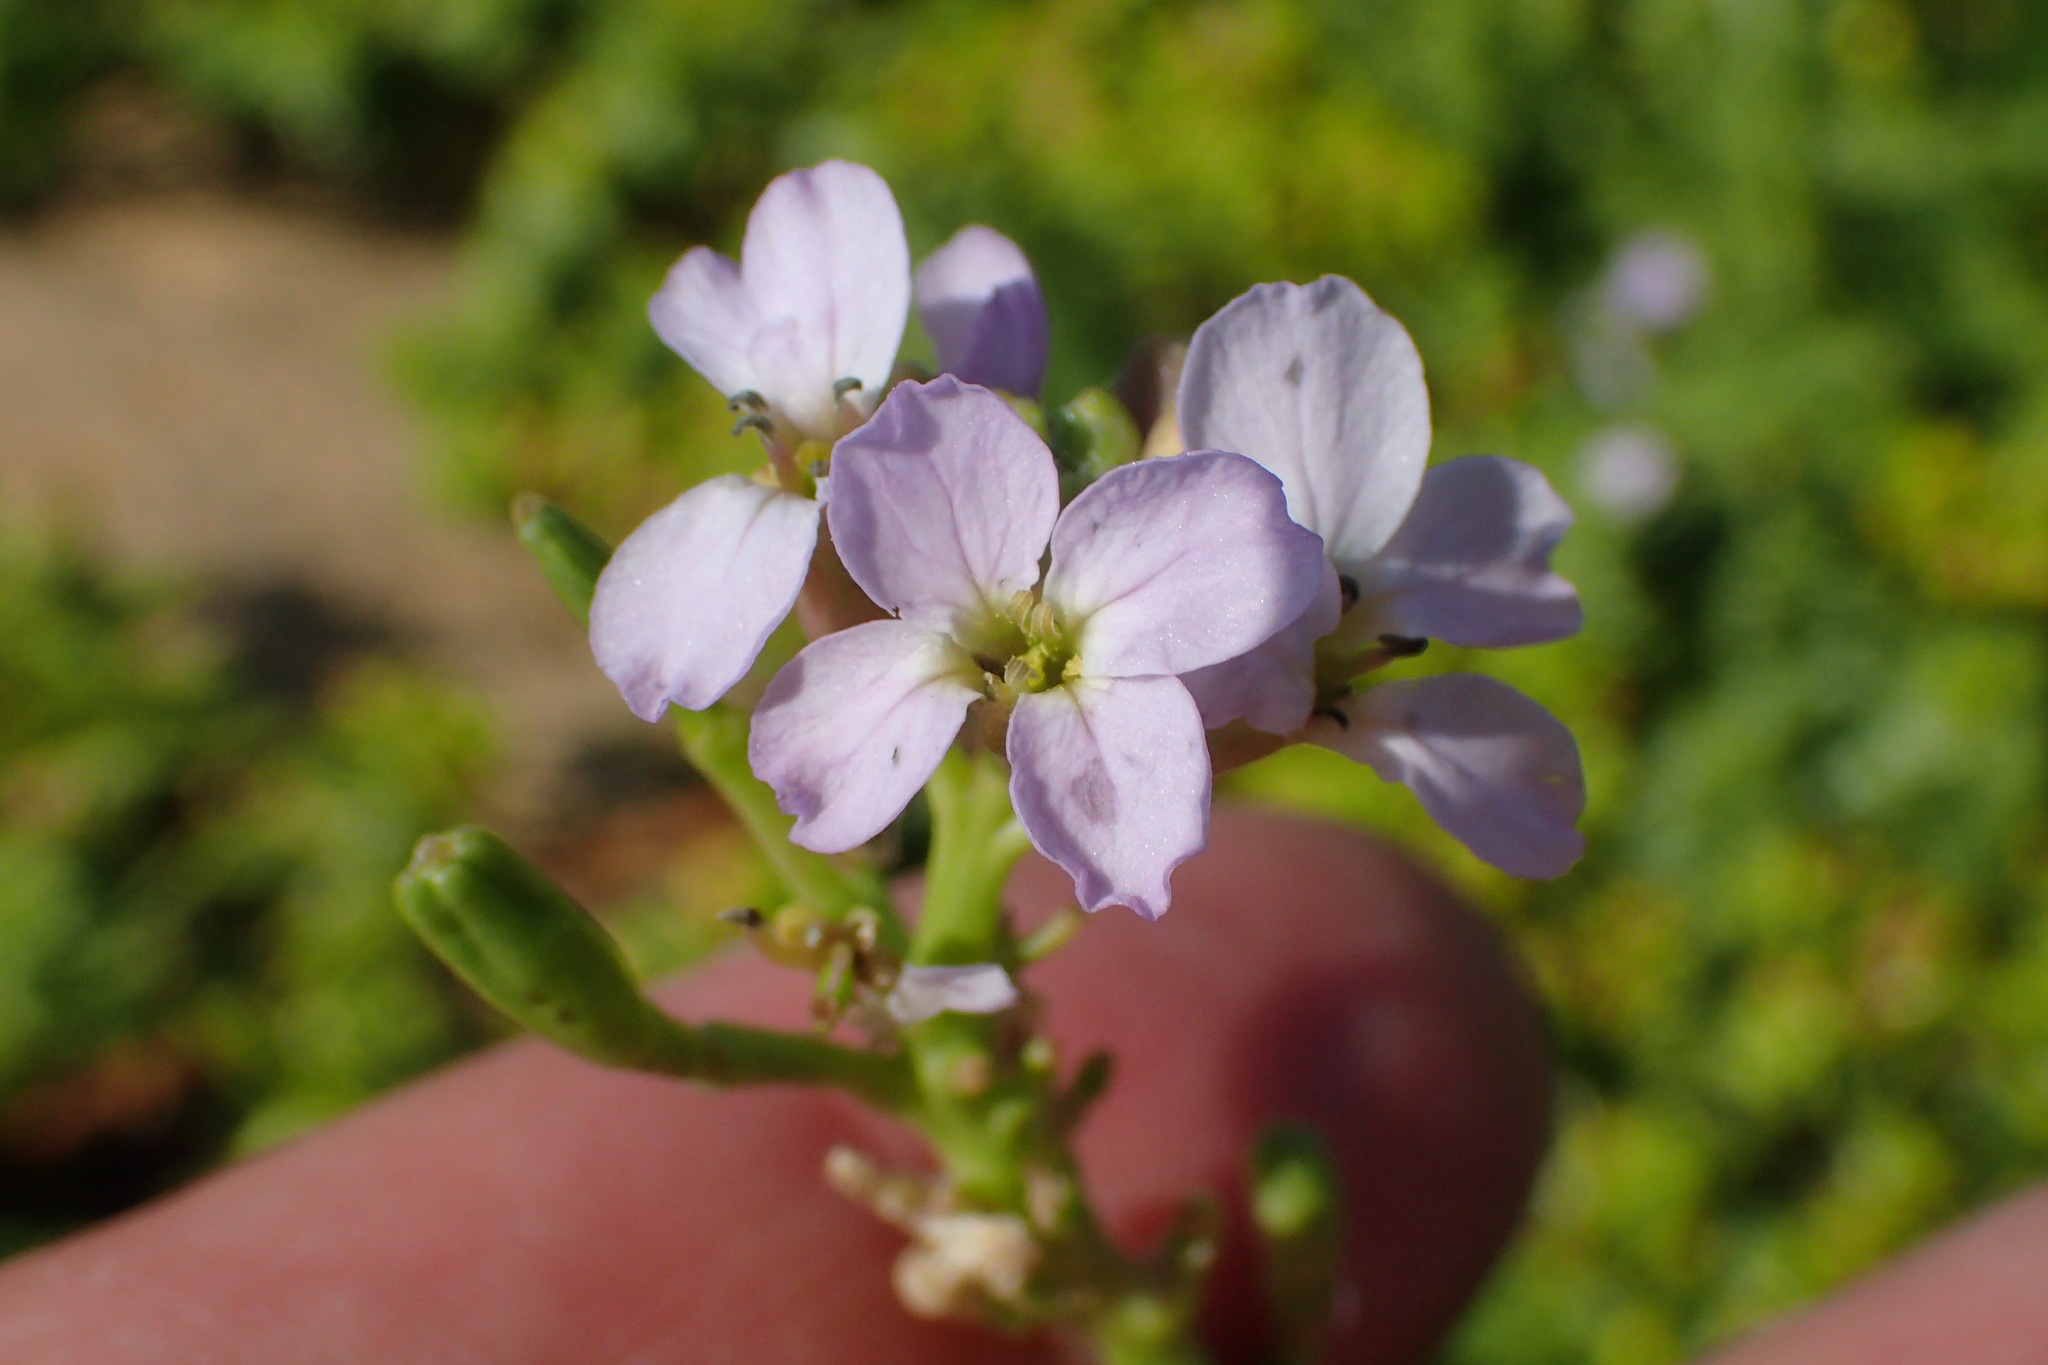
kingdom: Plantae
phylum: Tracheophyta
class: Magnoliopsida
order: Brassicales
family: Brassicaceae
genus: Cakile
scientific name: Cakile maritima
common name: Sea rocket
